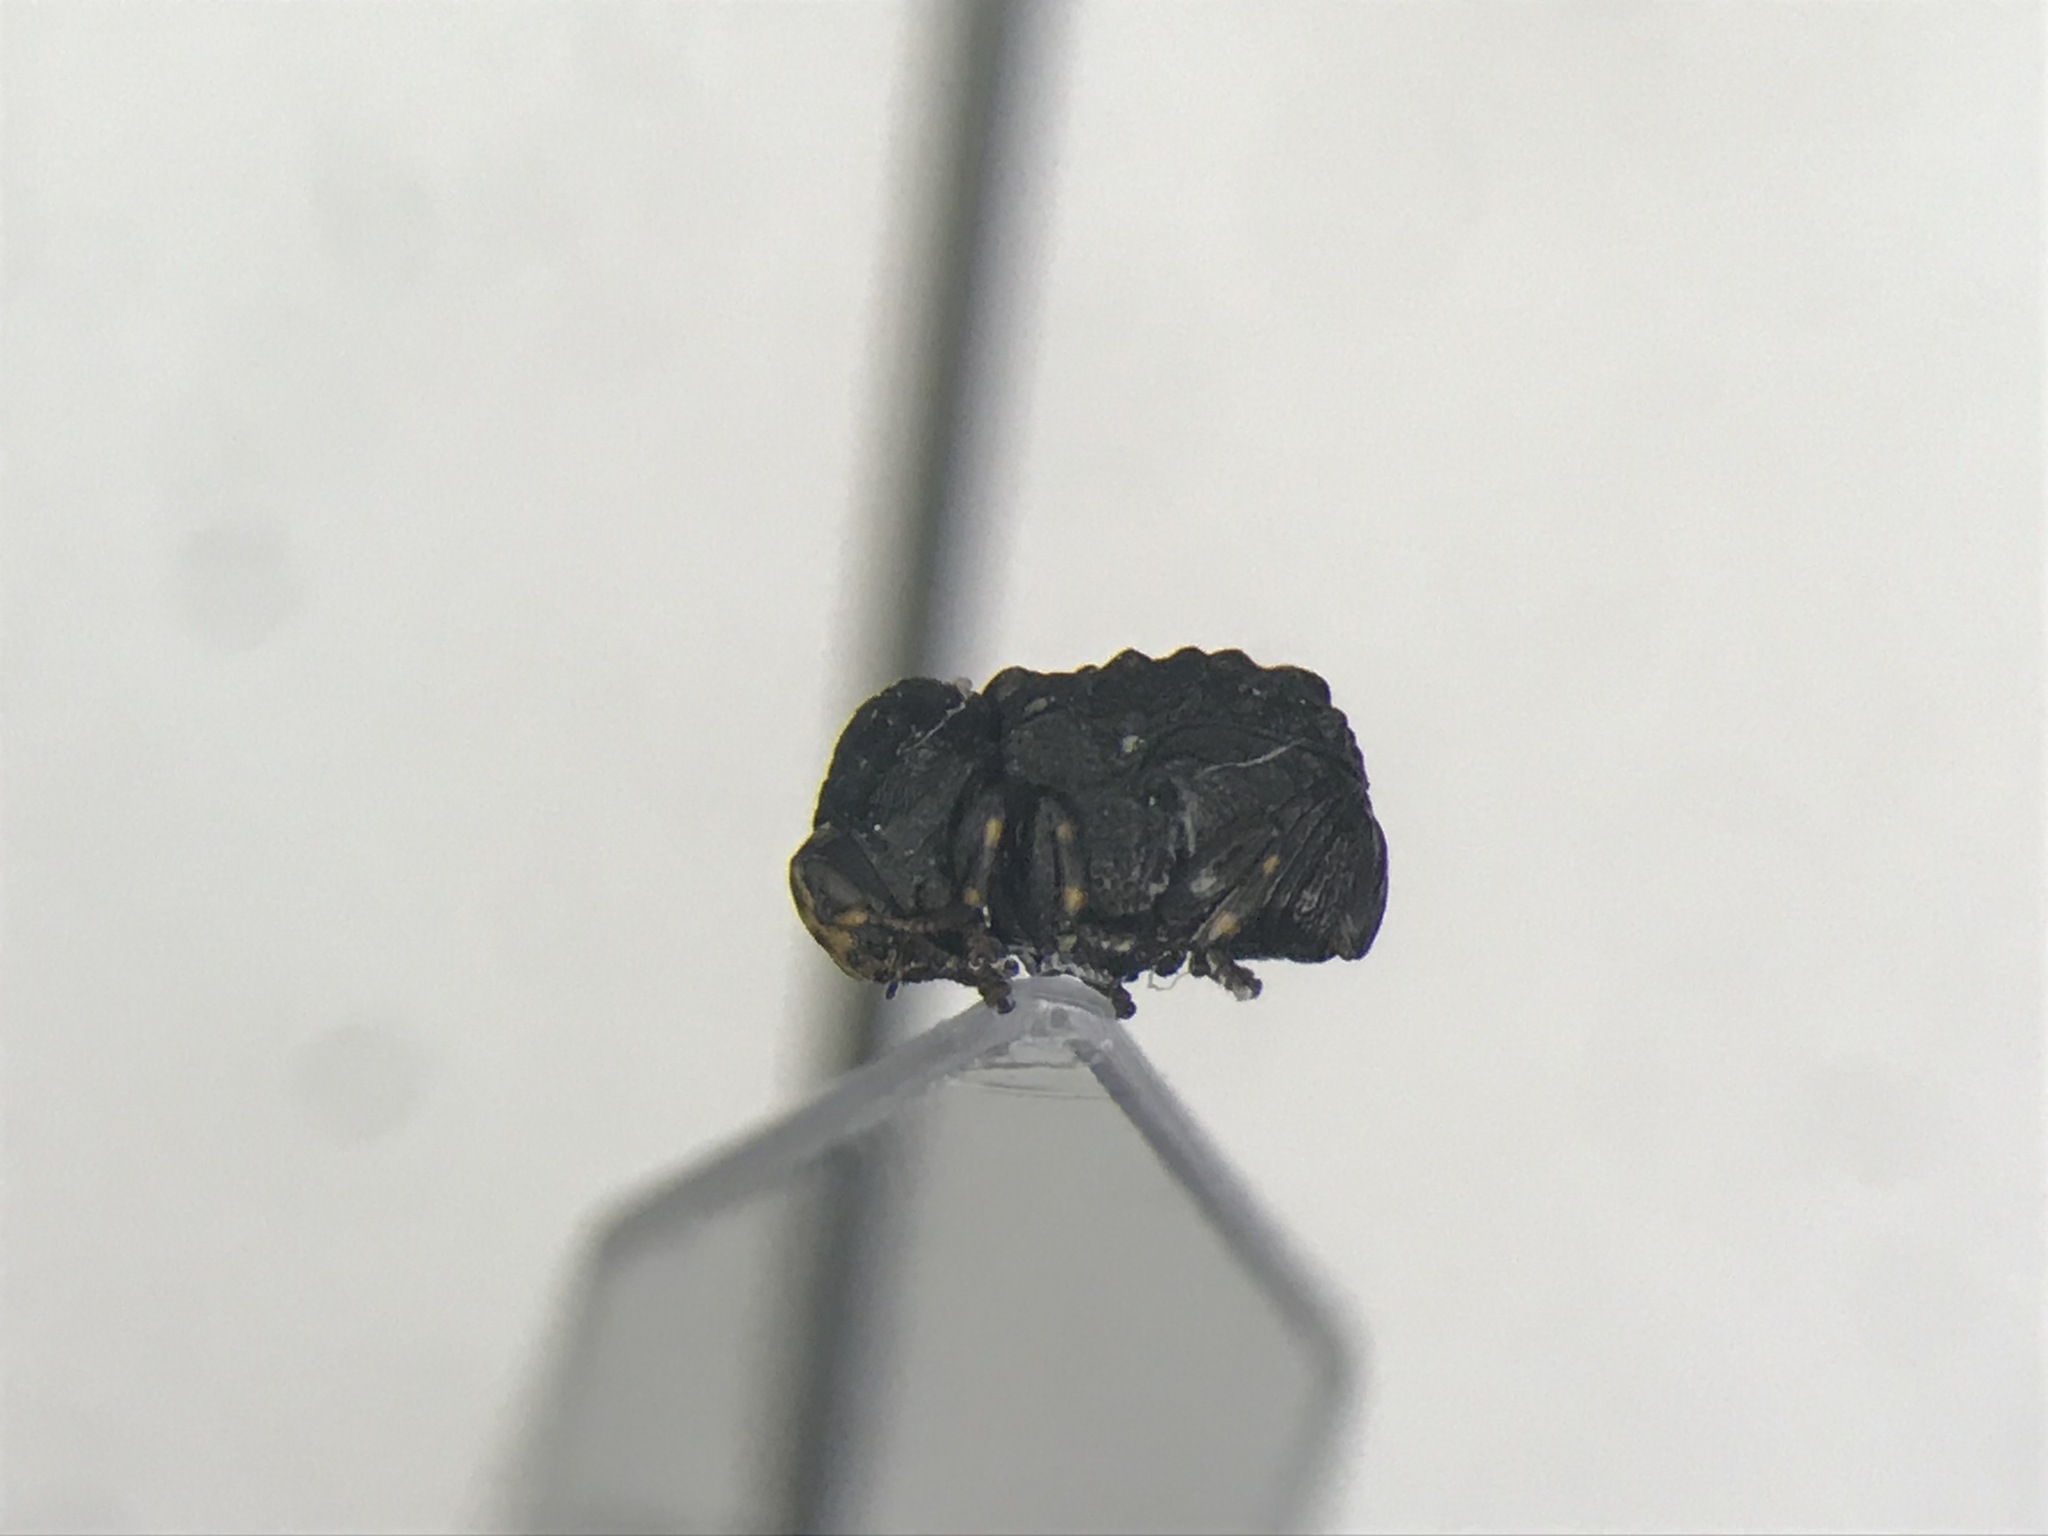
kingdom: Animalia
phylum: Arthropoda
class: Insecta
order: Coleoptera
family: Chrysomelidae
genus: Exema
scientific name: Exema canadensis
